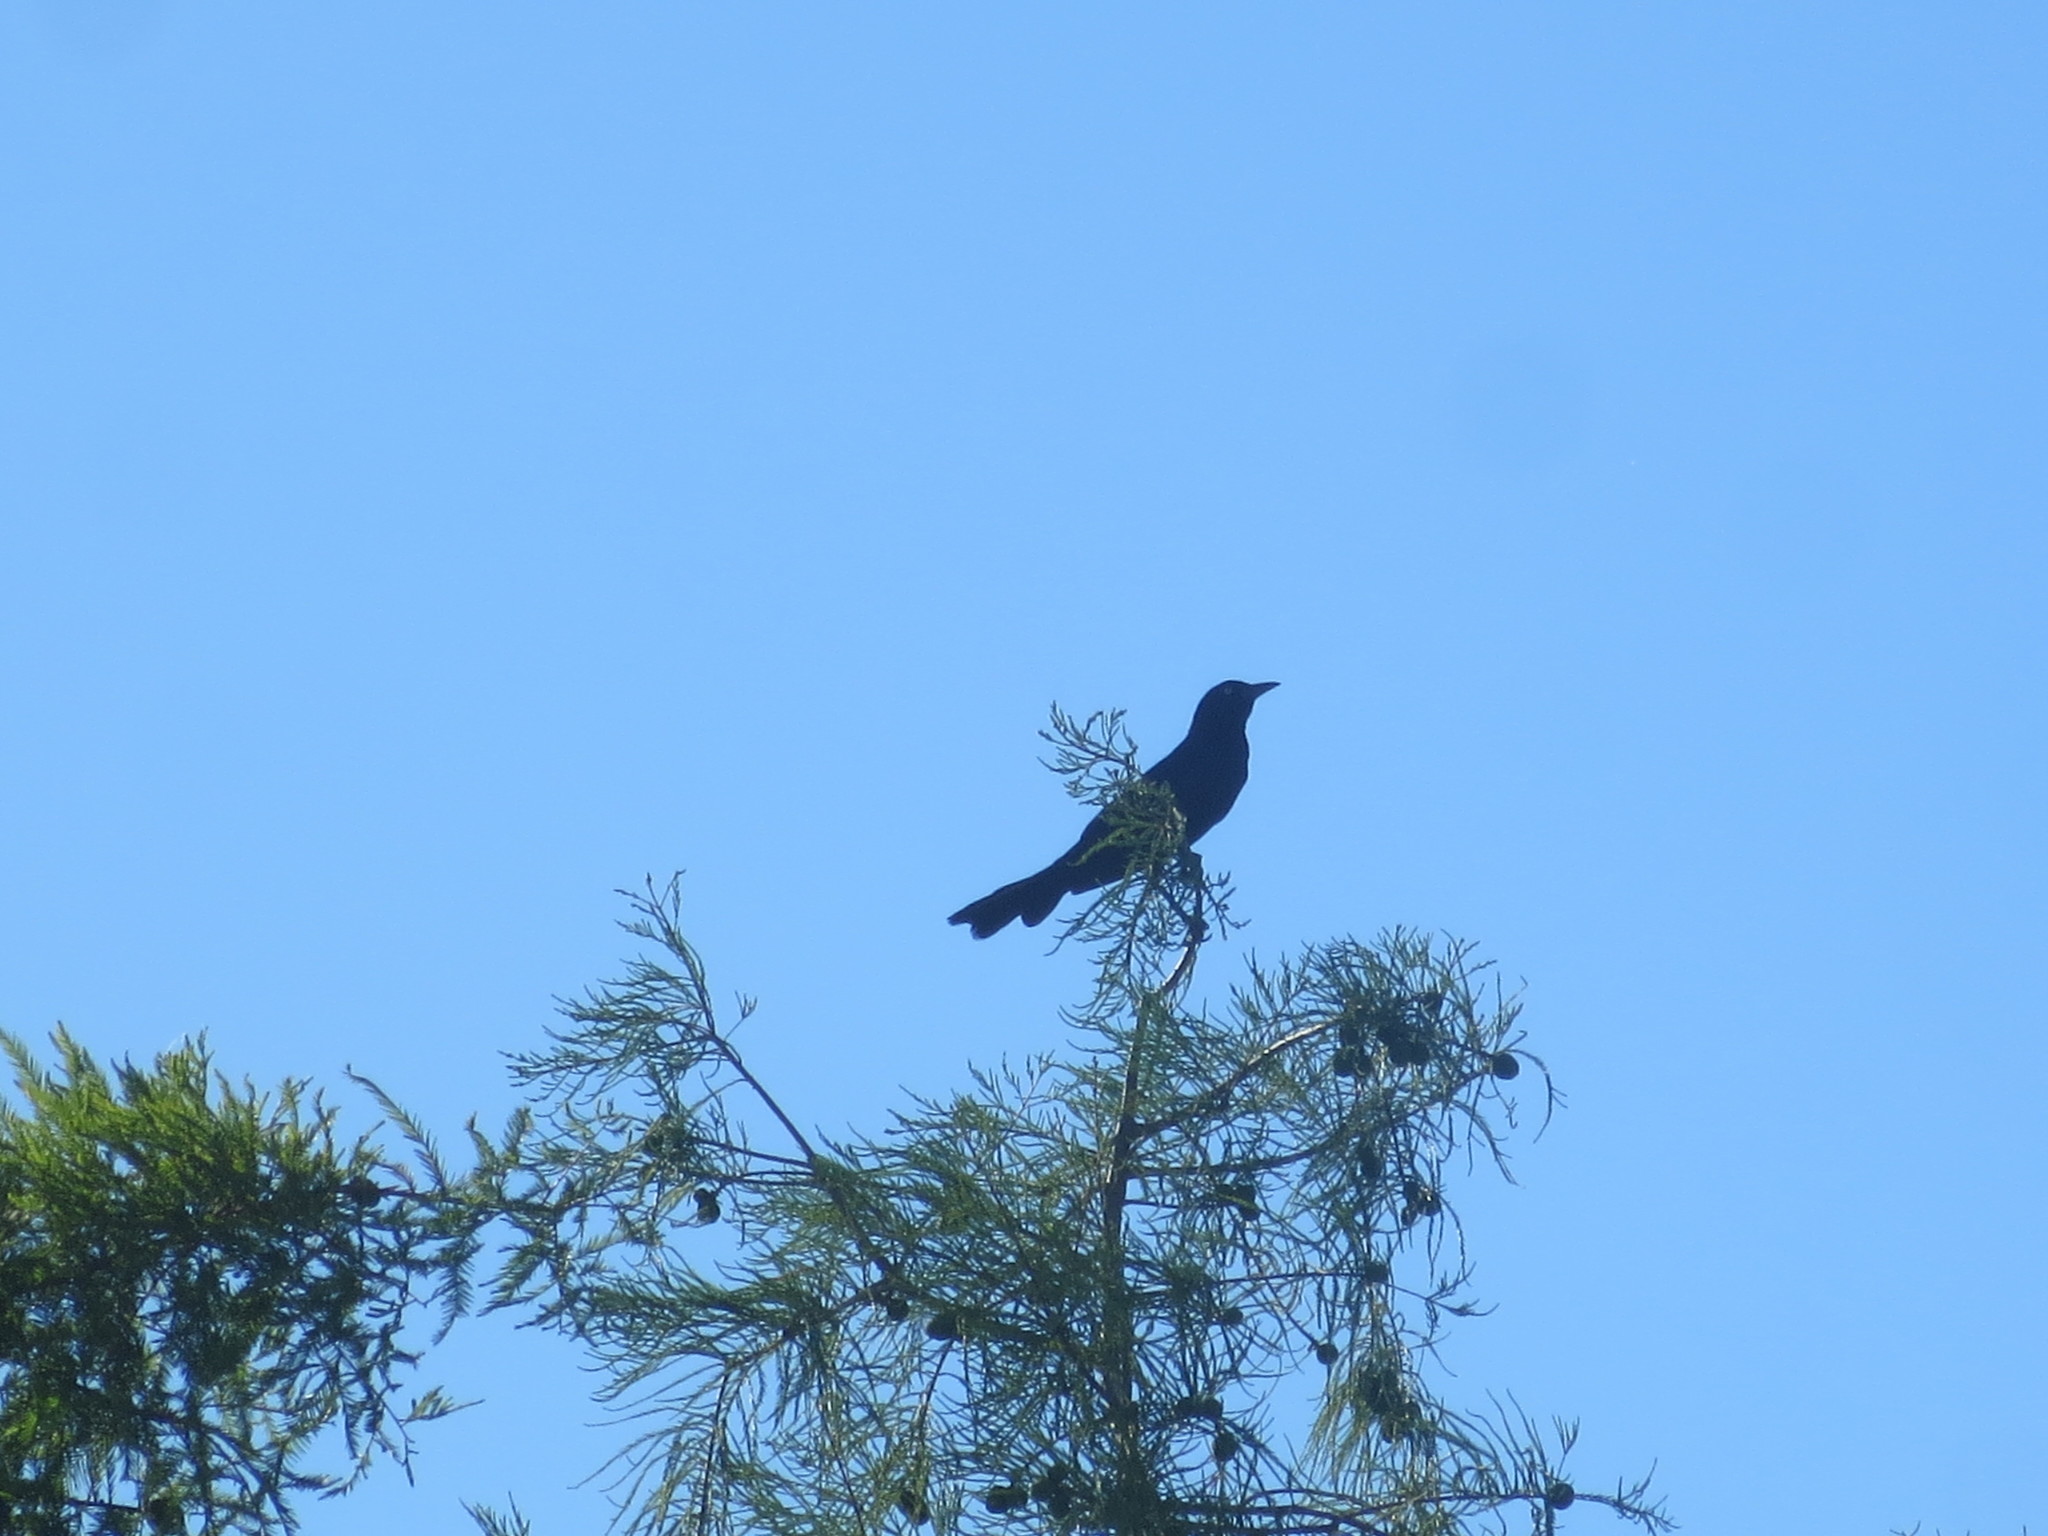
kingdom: Animalia
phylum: Chordata
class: Aves
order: Passeriformes
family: Icteridae
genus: Quiscalus
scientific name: Quiscalus major
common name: Boat-tailed grackle
